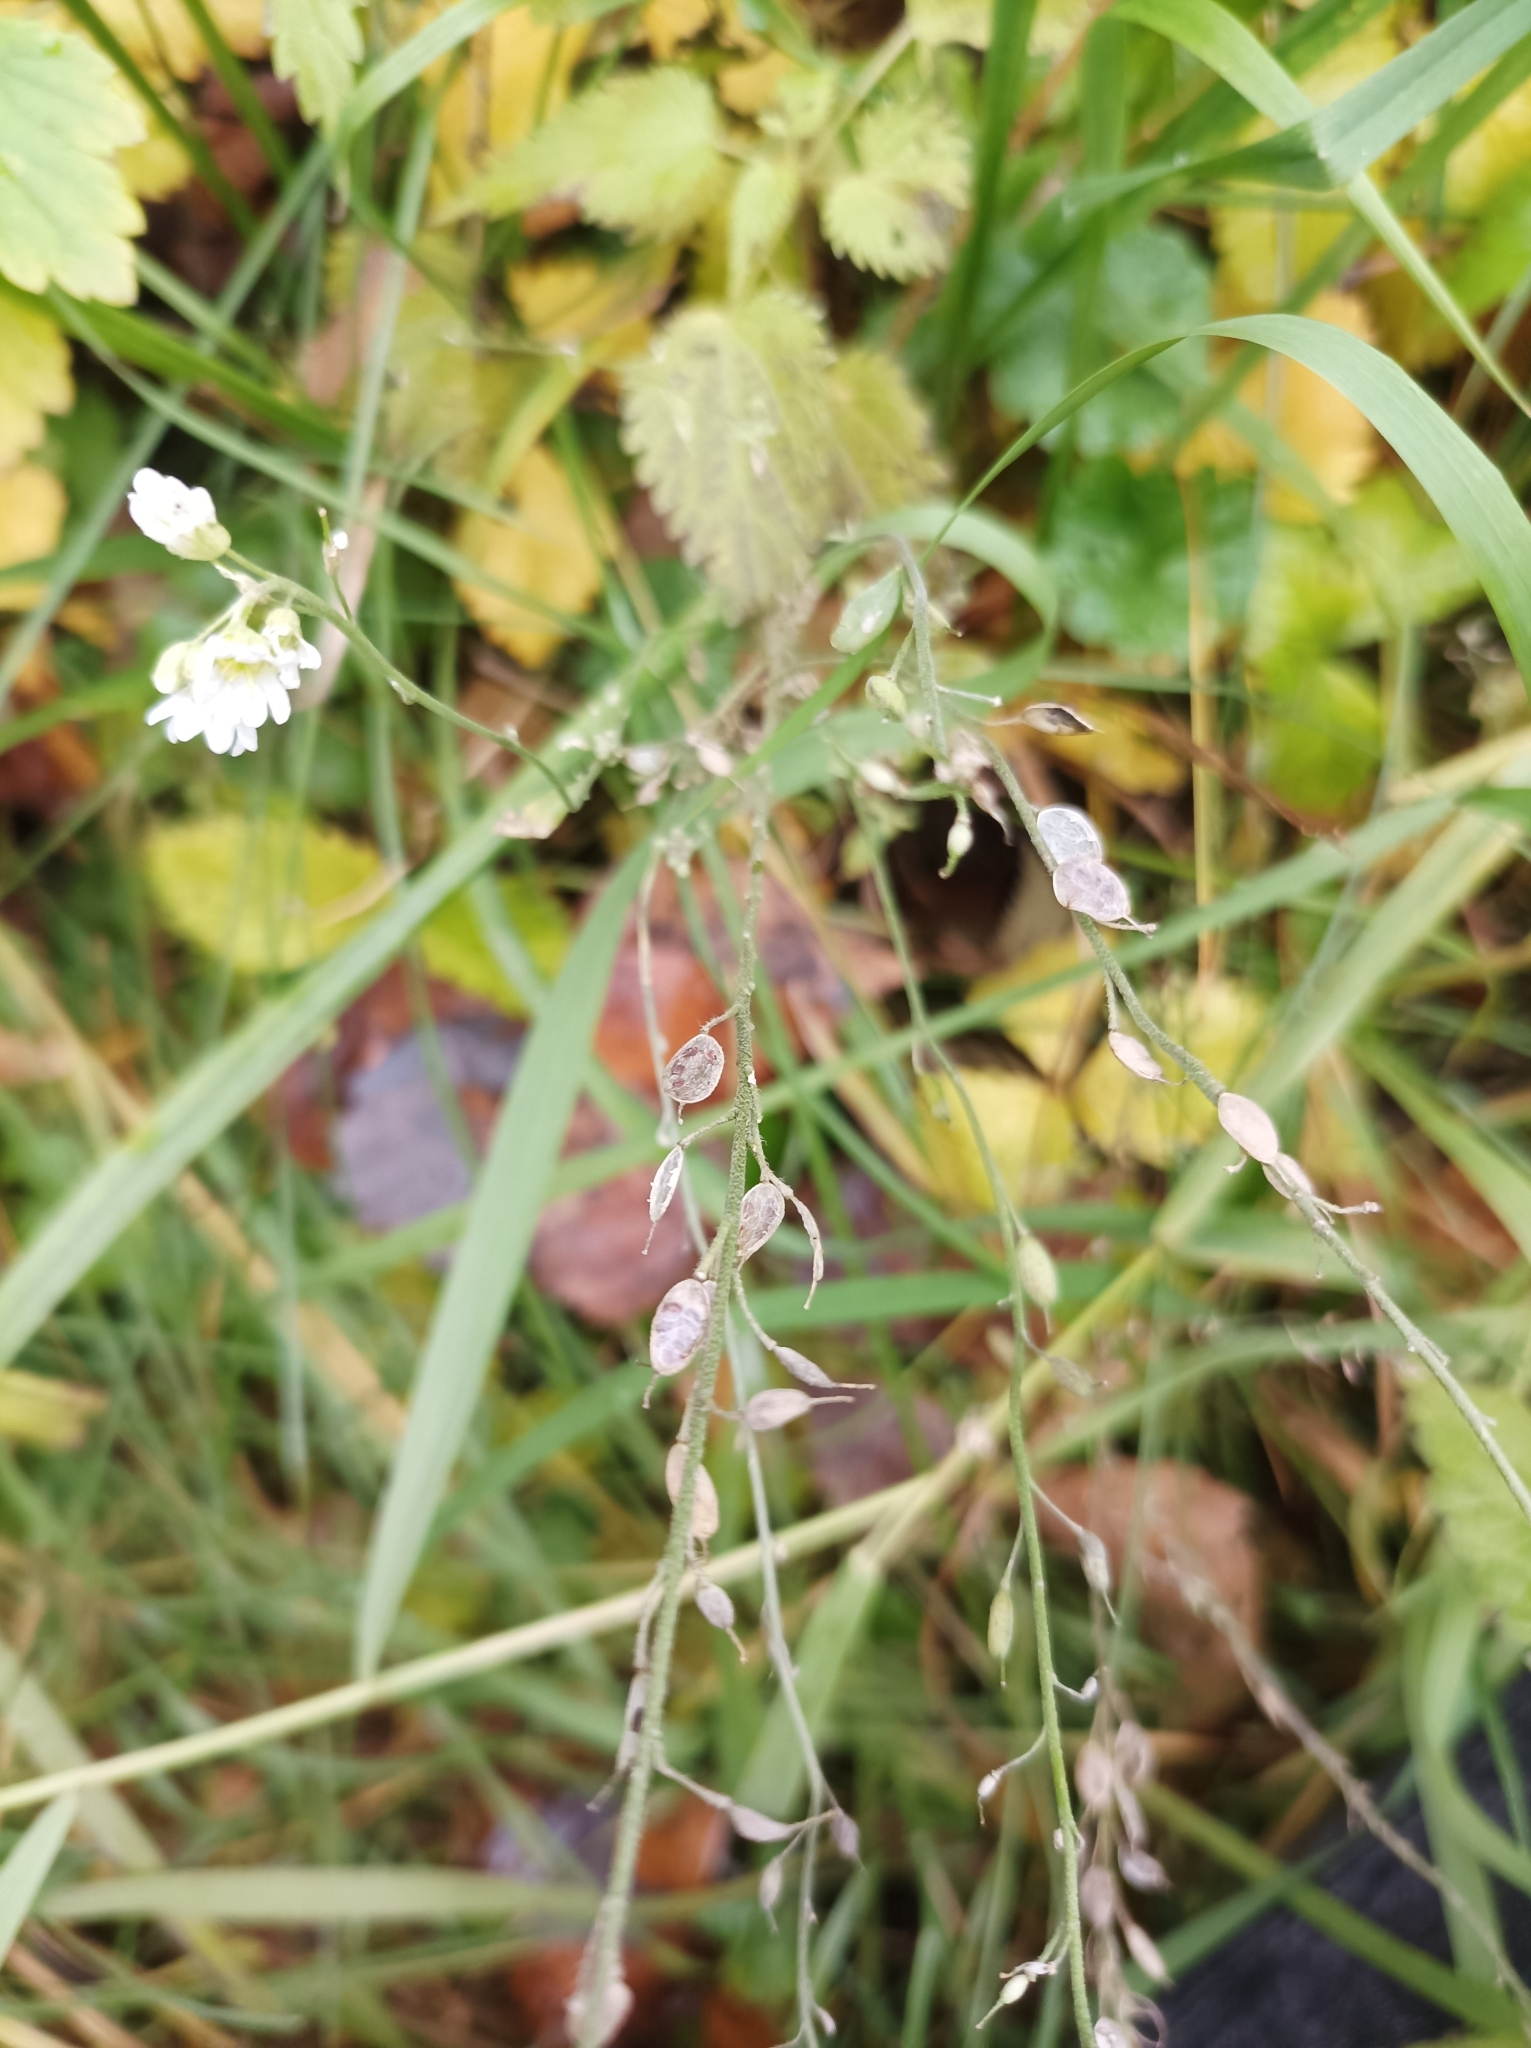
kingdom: Plantae
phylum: Tracheophyta
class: Magnoliopsida
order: Brassicales
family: Brassicaceae
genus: Berteroa
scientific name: Berteroa incana
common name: Hoary alison
